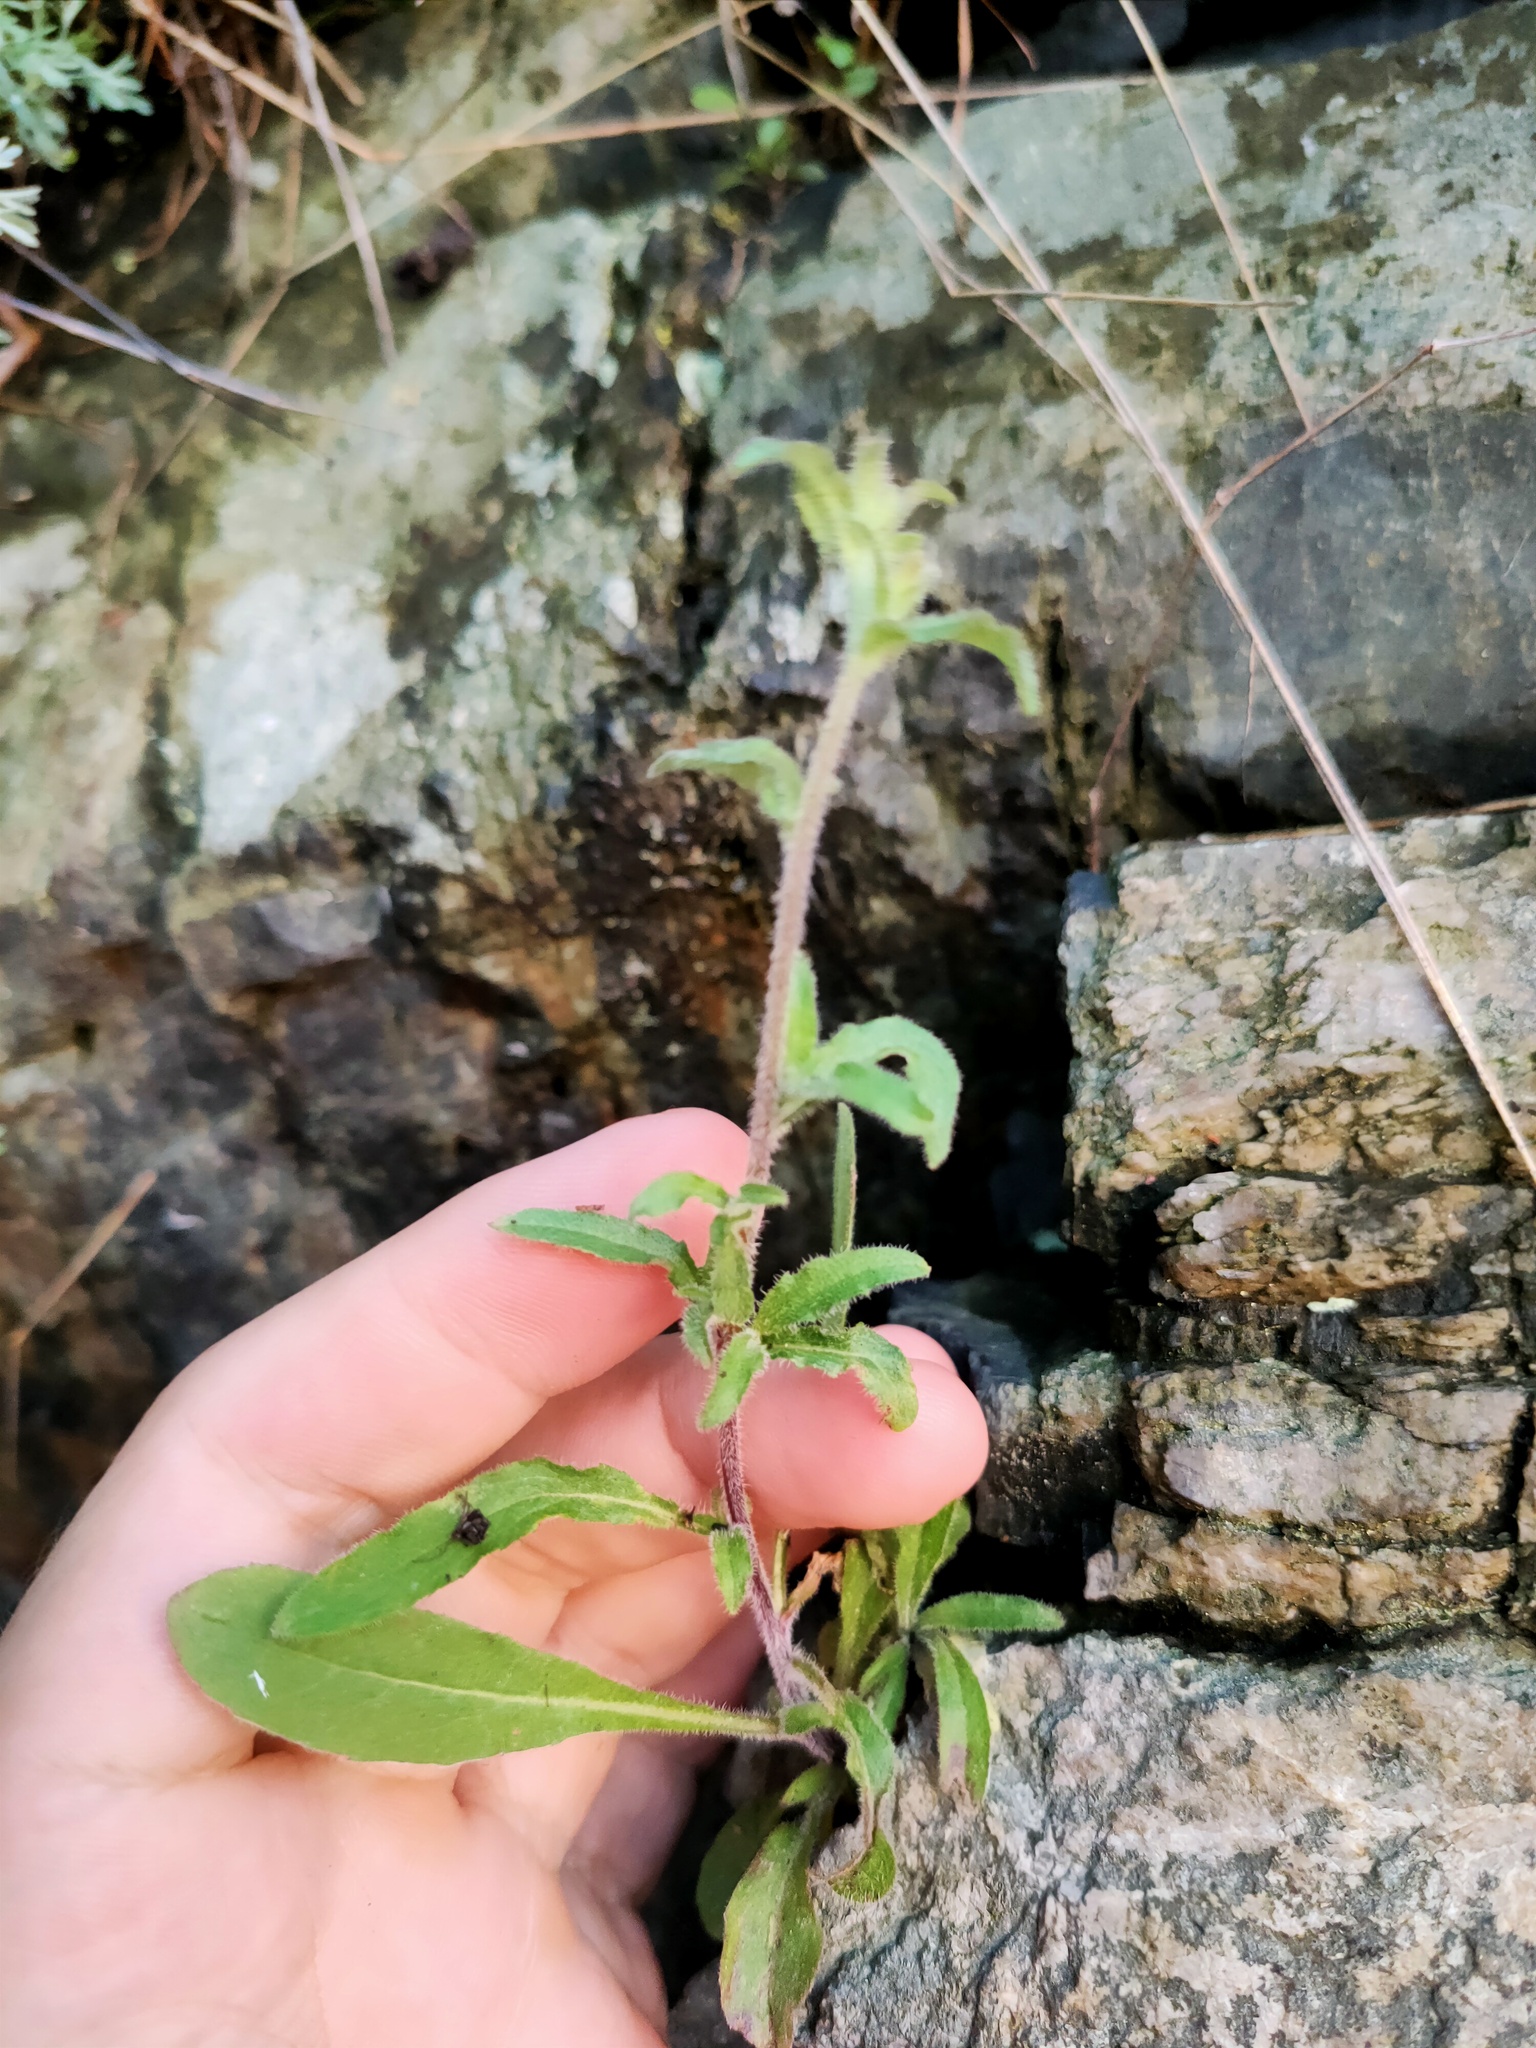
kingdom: Plantae
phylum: Tracheophyta
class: Magnoliopsida
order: Asterales
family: Campanulaceae
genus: Campanula
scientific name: Campanula sibirica
